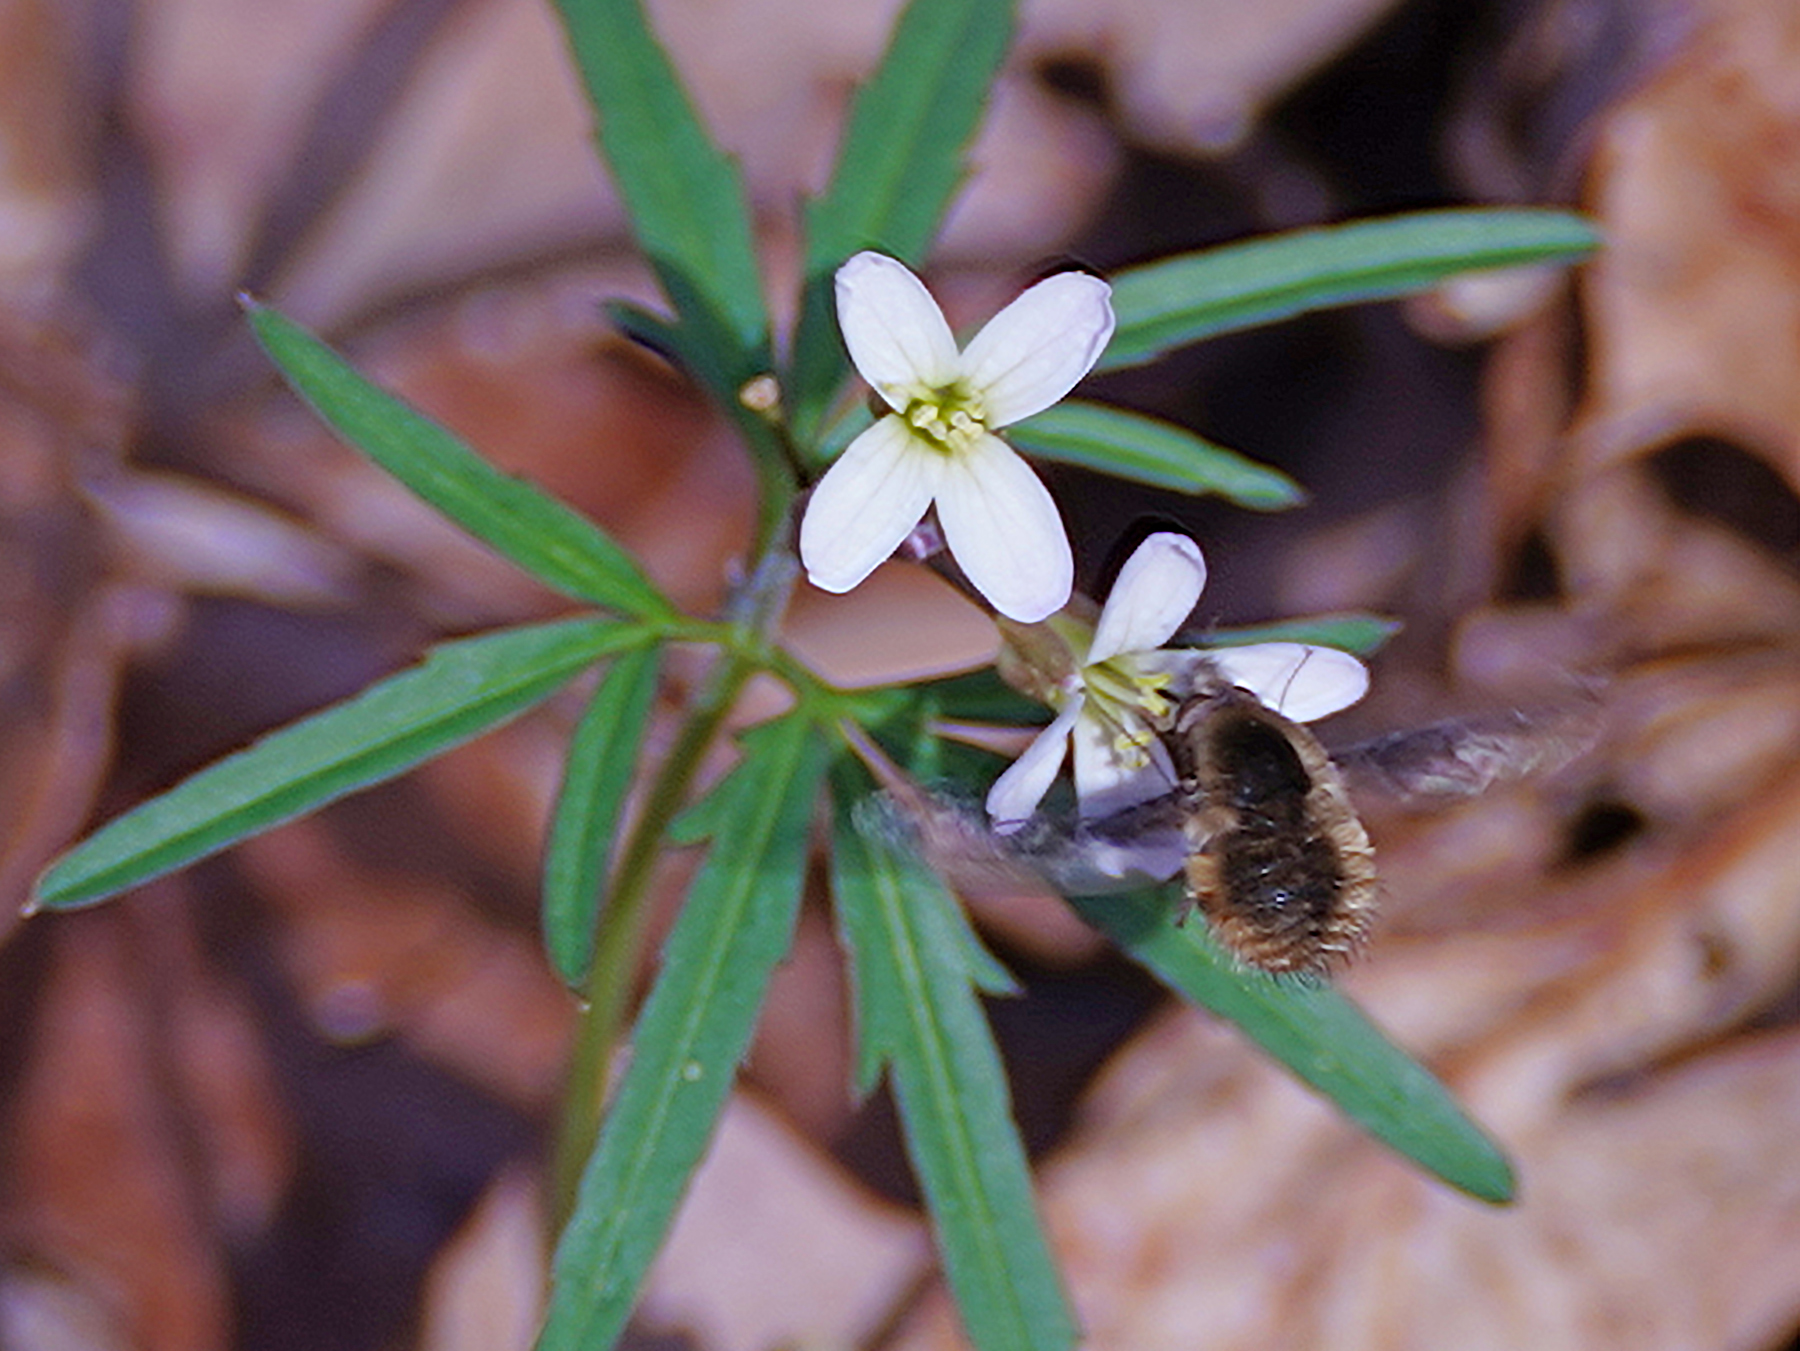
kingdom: Animalia
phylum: Arthropoda
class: Insecta
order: Diptera
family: Bombyliidae
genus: Bombylius
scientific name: Bombylius major
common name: Bee fly
